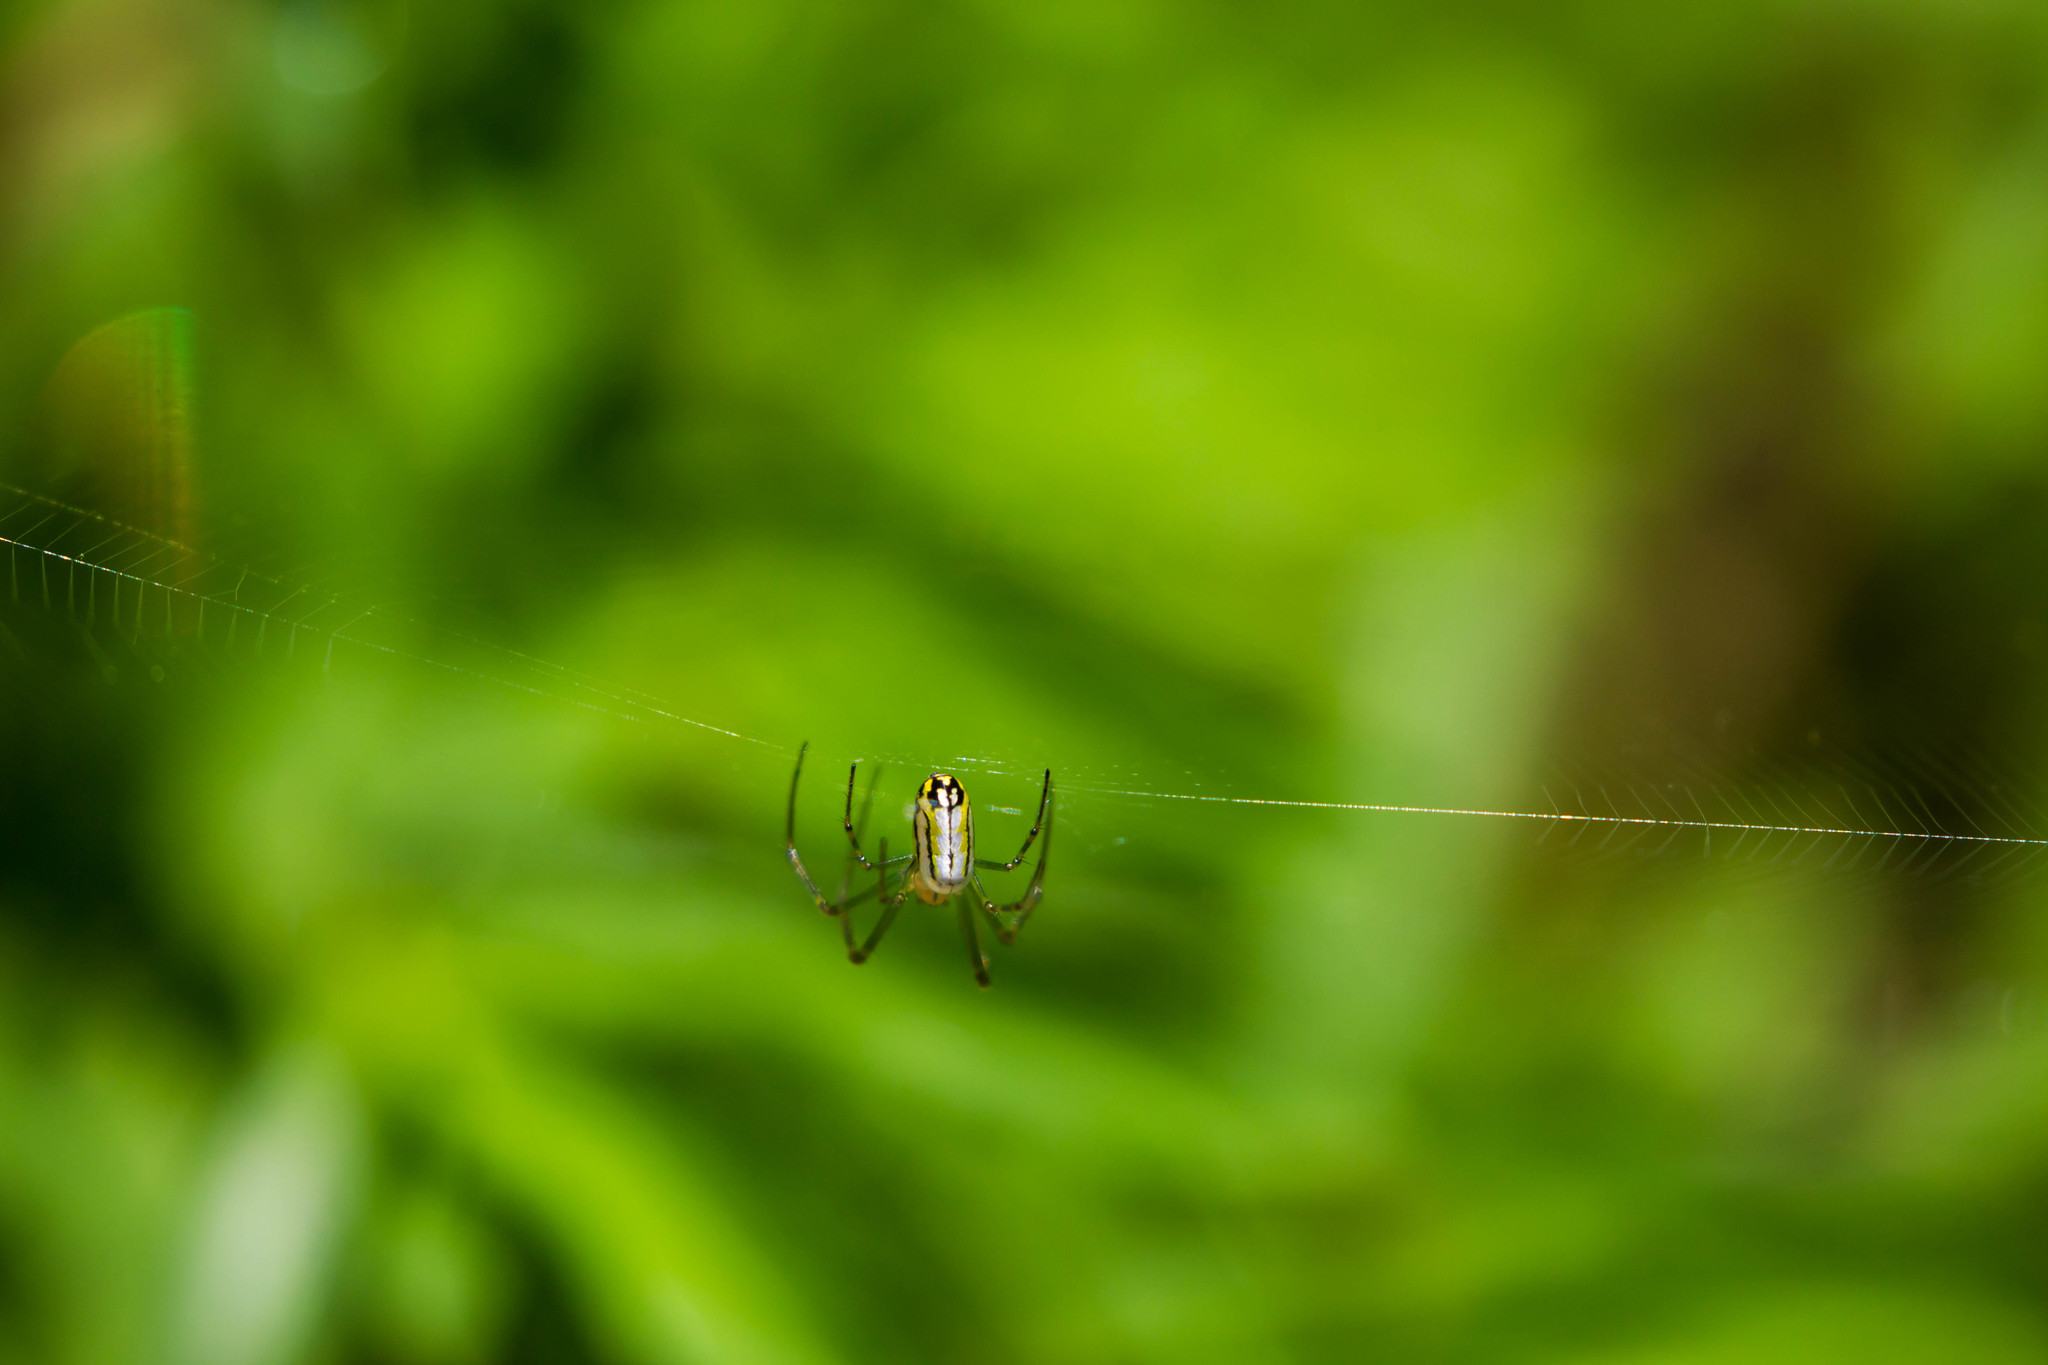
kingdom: Animalia
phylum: Arthropoda
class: Arachnida
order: Araneae
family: Tetragnathidae
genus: Leucauge
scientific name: Leucauge venusta
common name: Longjawed orb weavers
